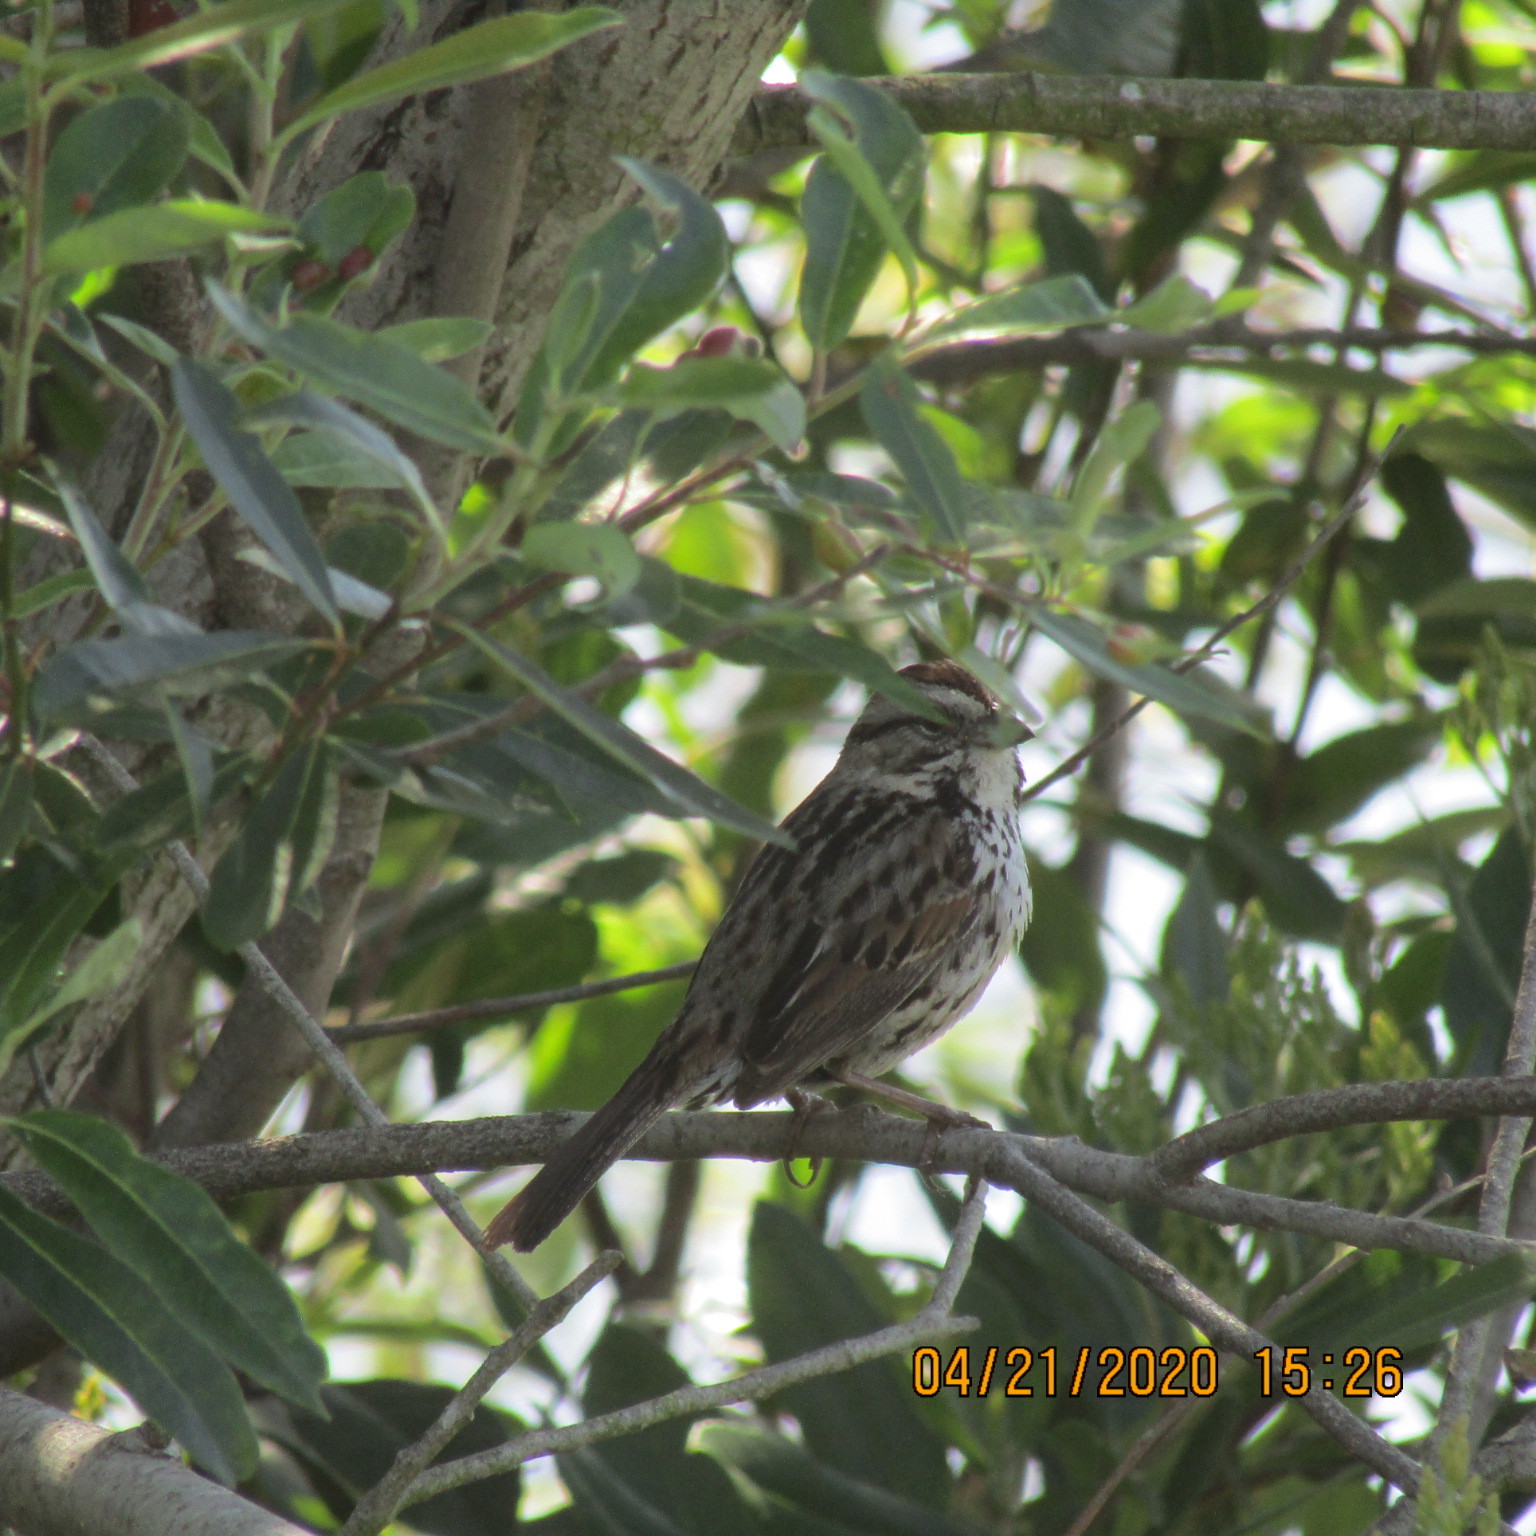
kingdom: Animalia
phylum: Chordata
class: Aves
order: Passeriformes
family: Passerellidae
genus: Melospiza
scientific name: Melospiza melodia
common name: Song sparrow
